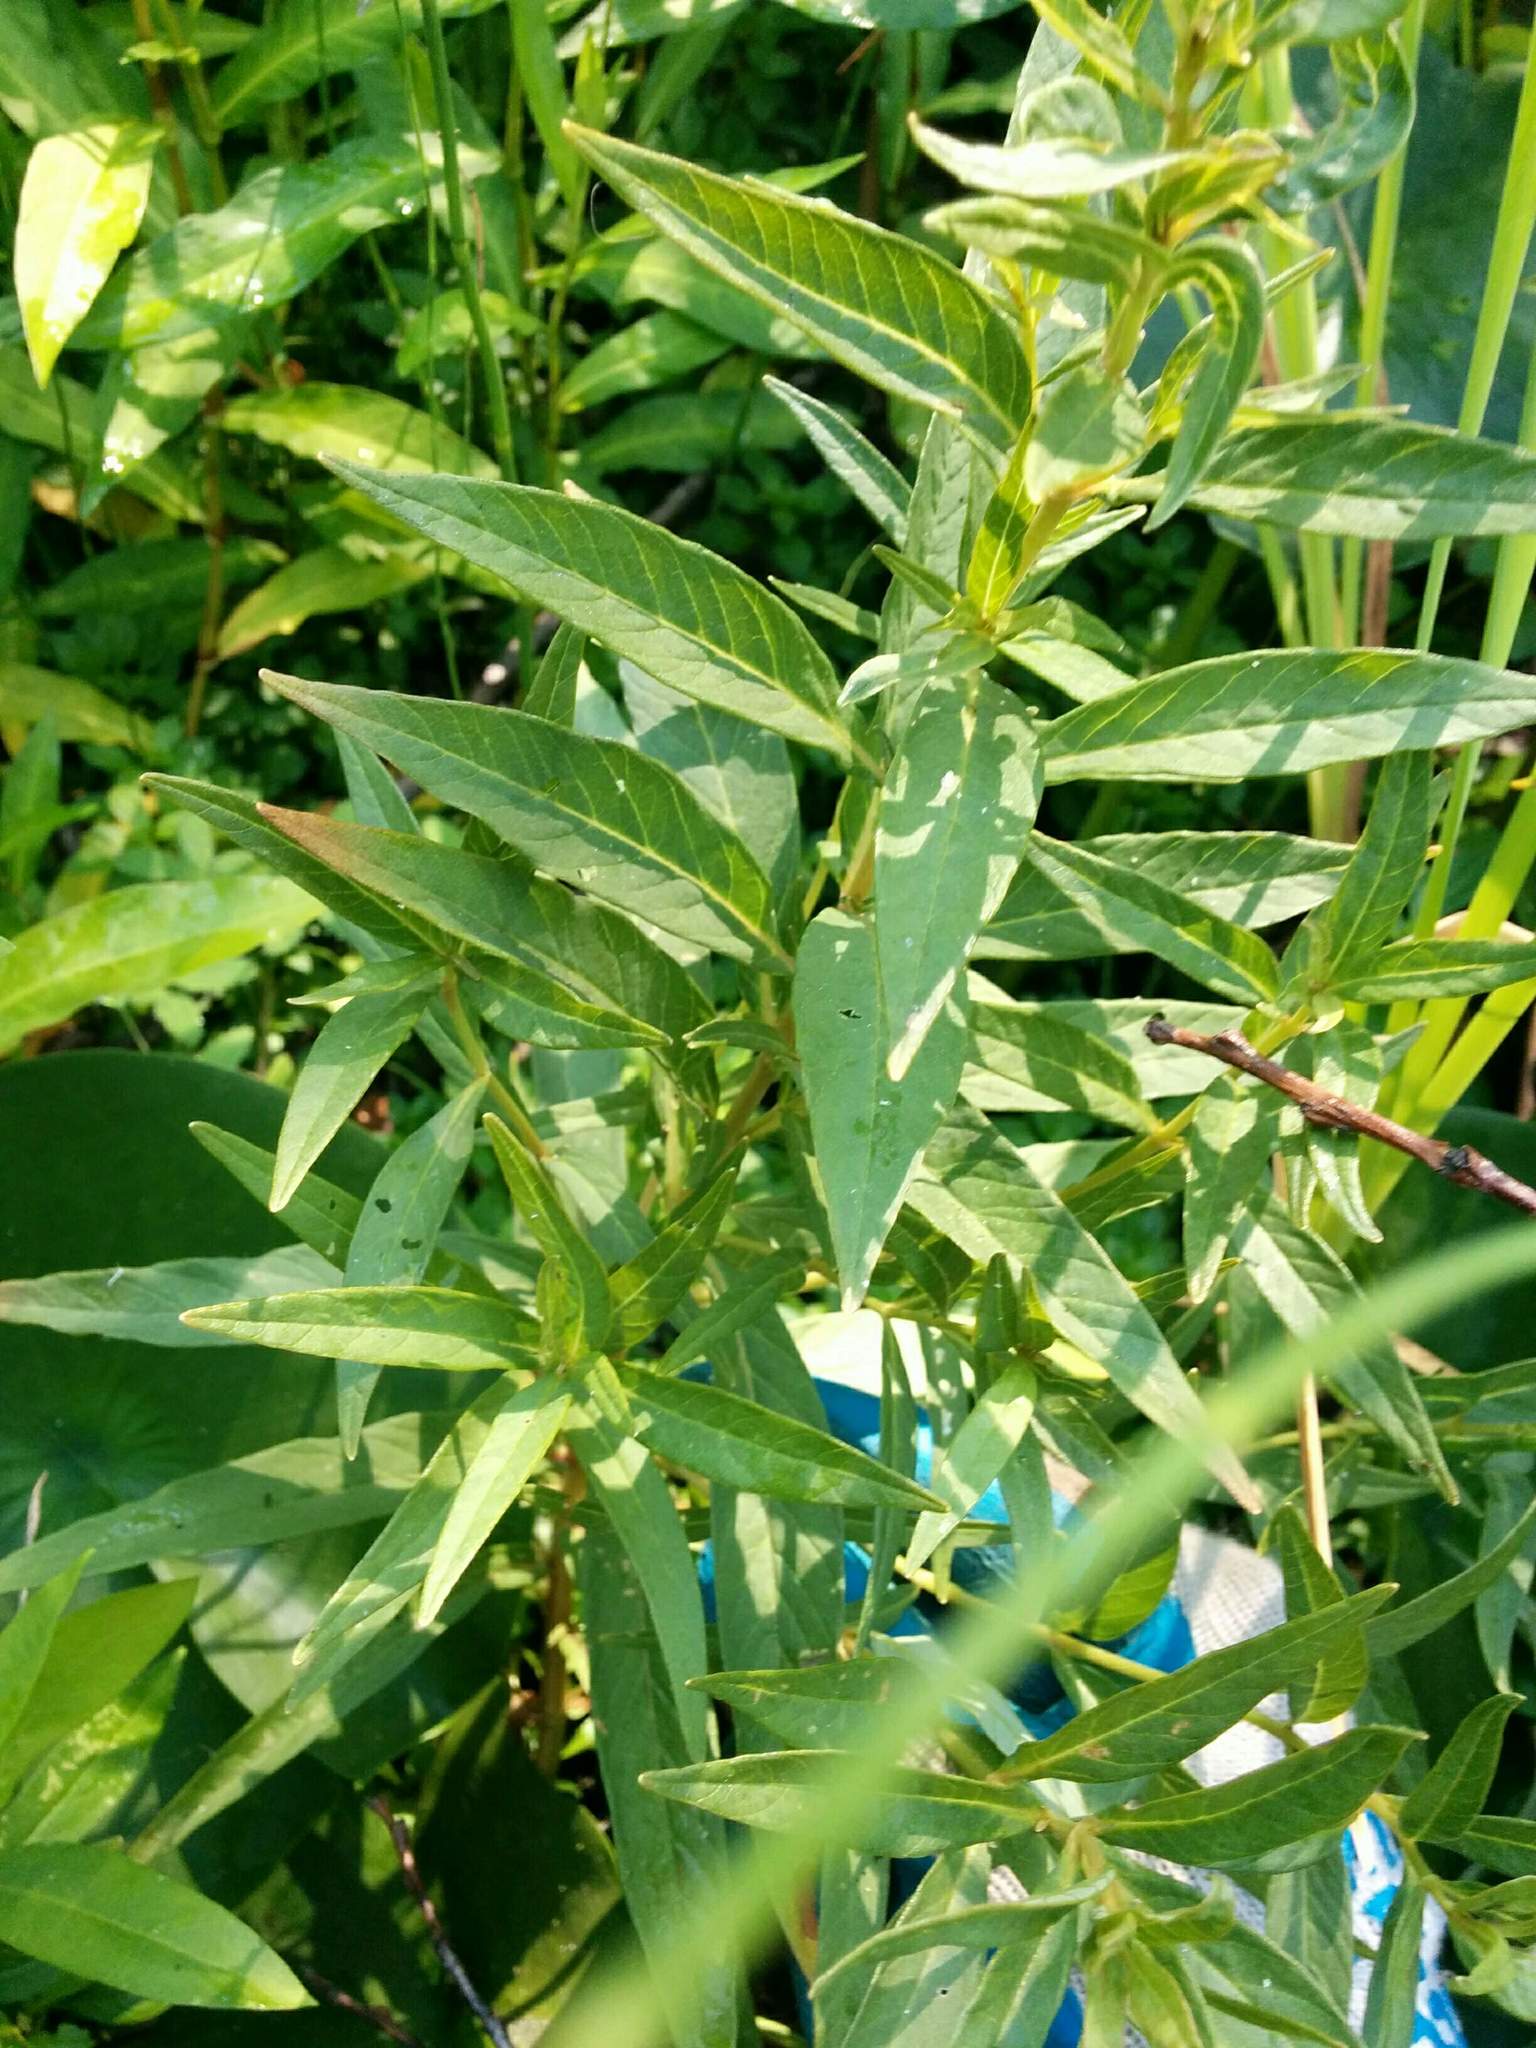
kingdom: Plantae
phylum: Tracheophyta
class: Magnoliopsida
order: Ericales
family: Primulaceae
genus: Lysimachia
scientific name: Lysimachia thyrsiflora
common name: Tufted loosestrife
